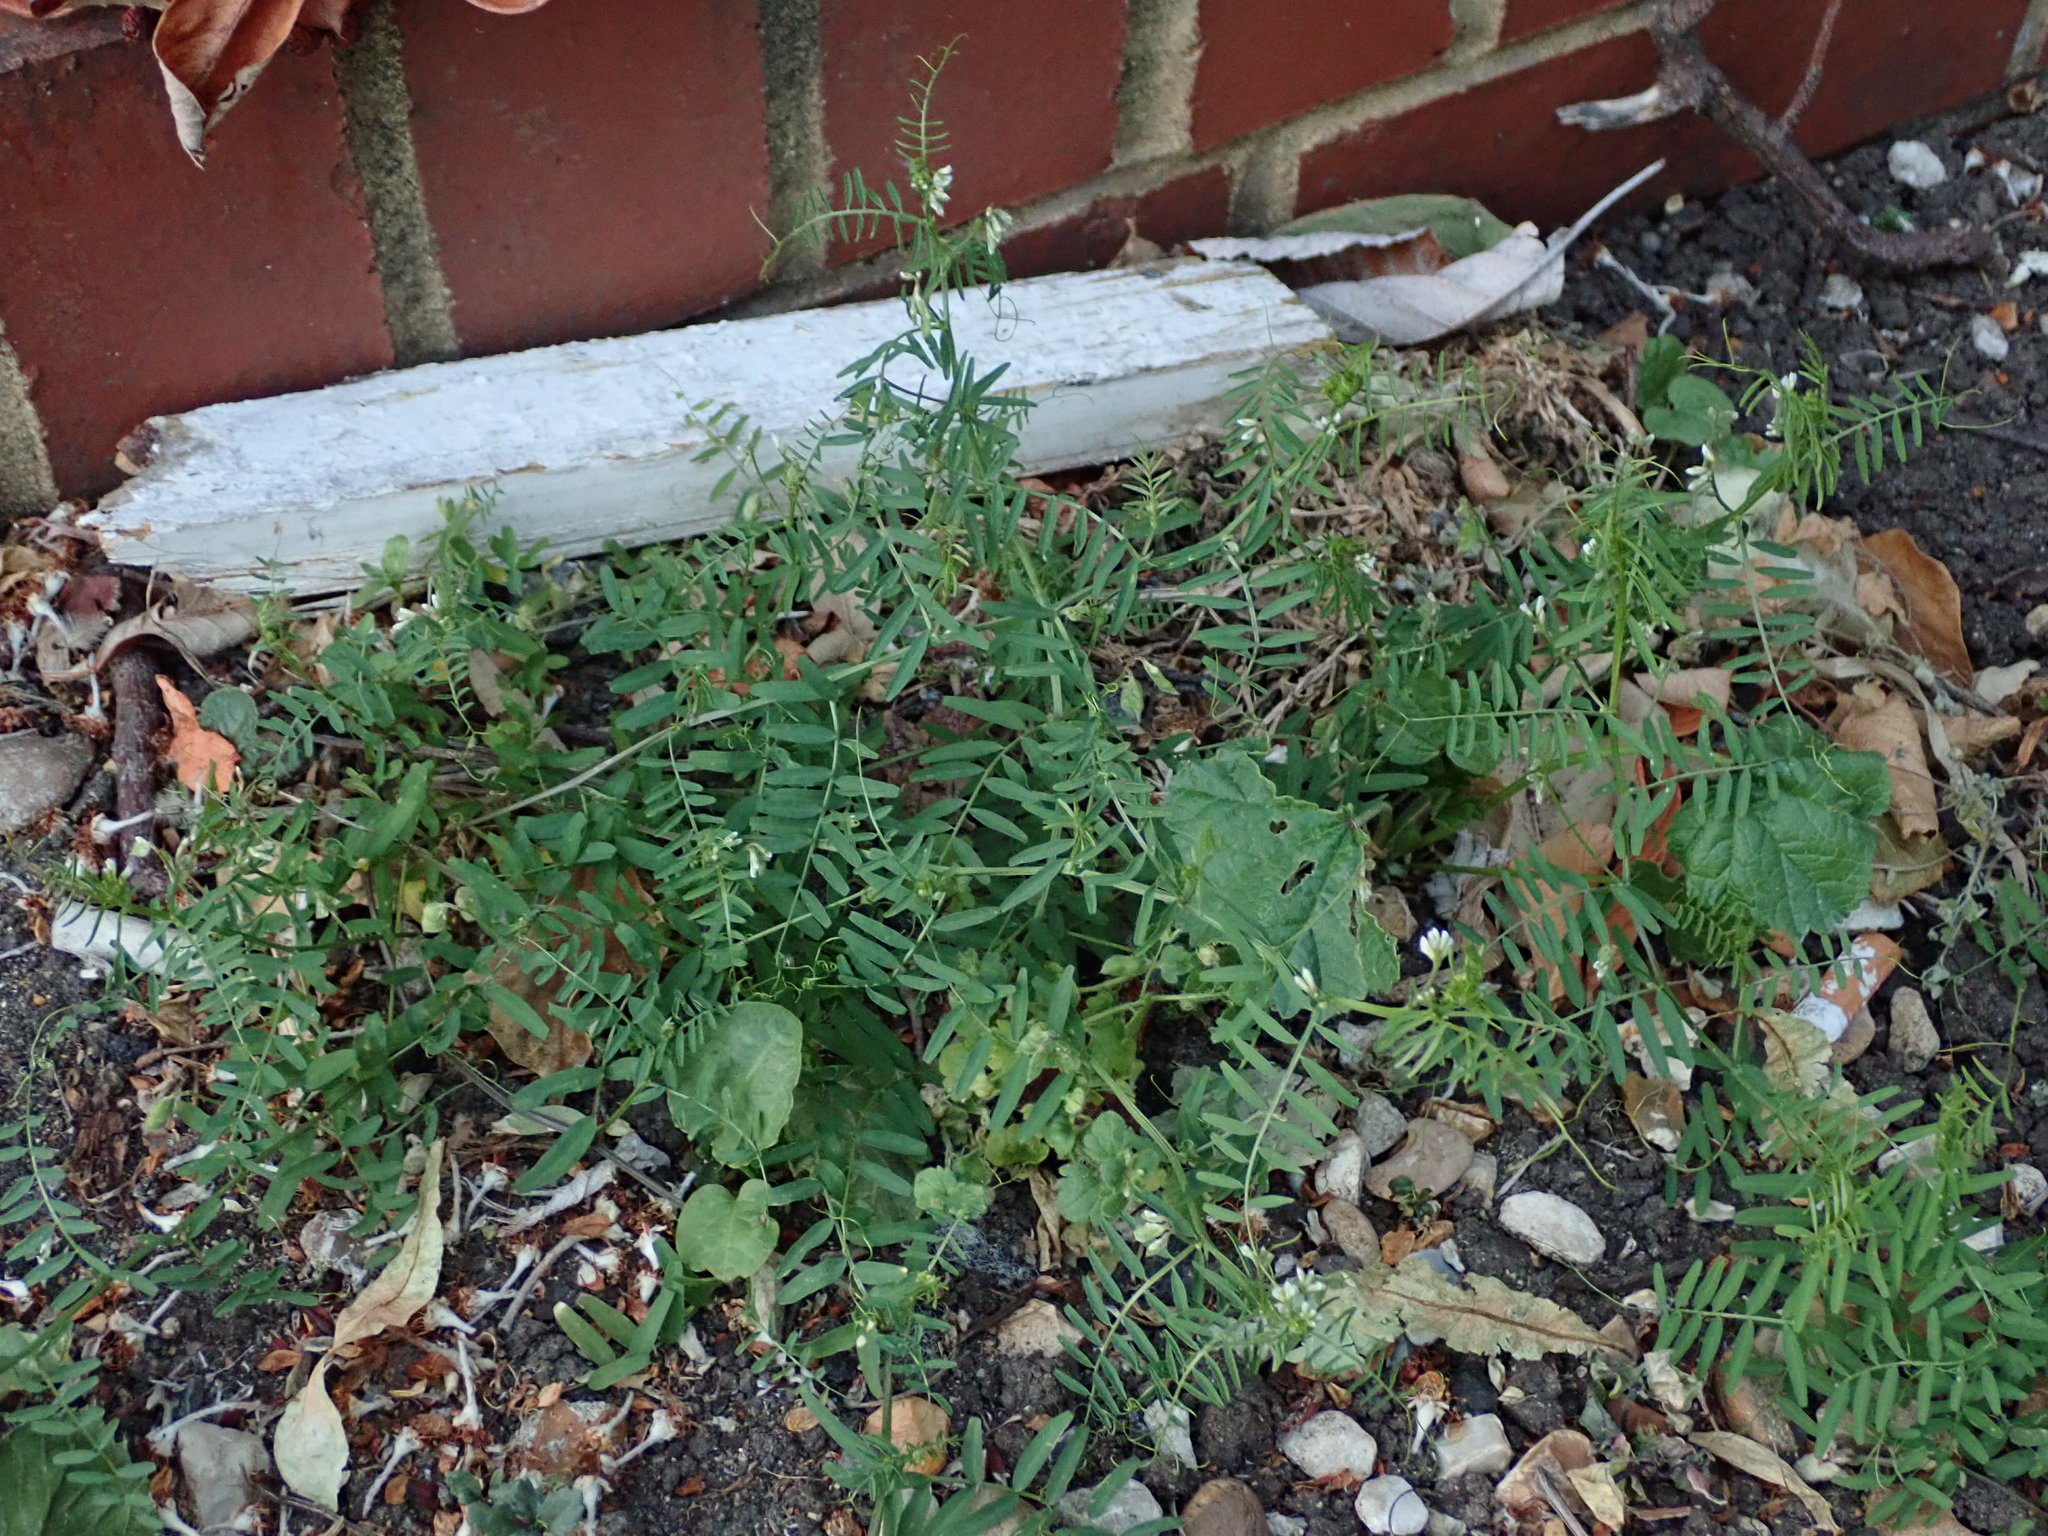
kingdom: Plantae
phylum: Tracheophyta
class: Magnoliopsida
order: Fabales
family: Fabaceae
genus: Vicia
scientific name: Vicia hirsuta
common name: Tiny vetch
